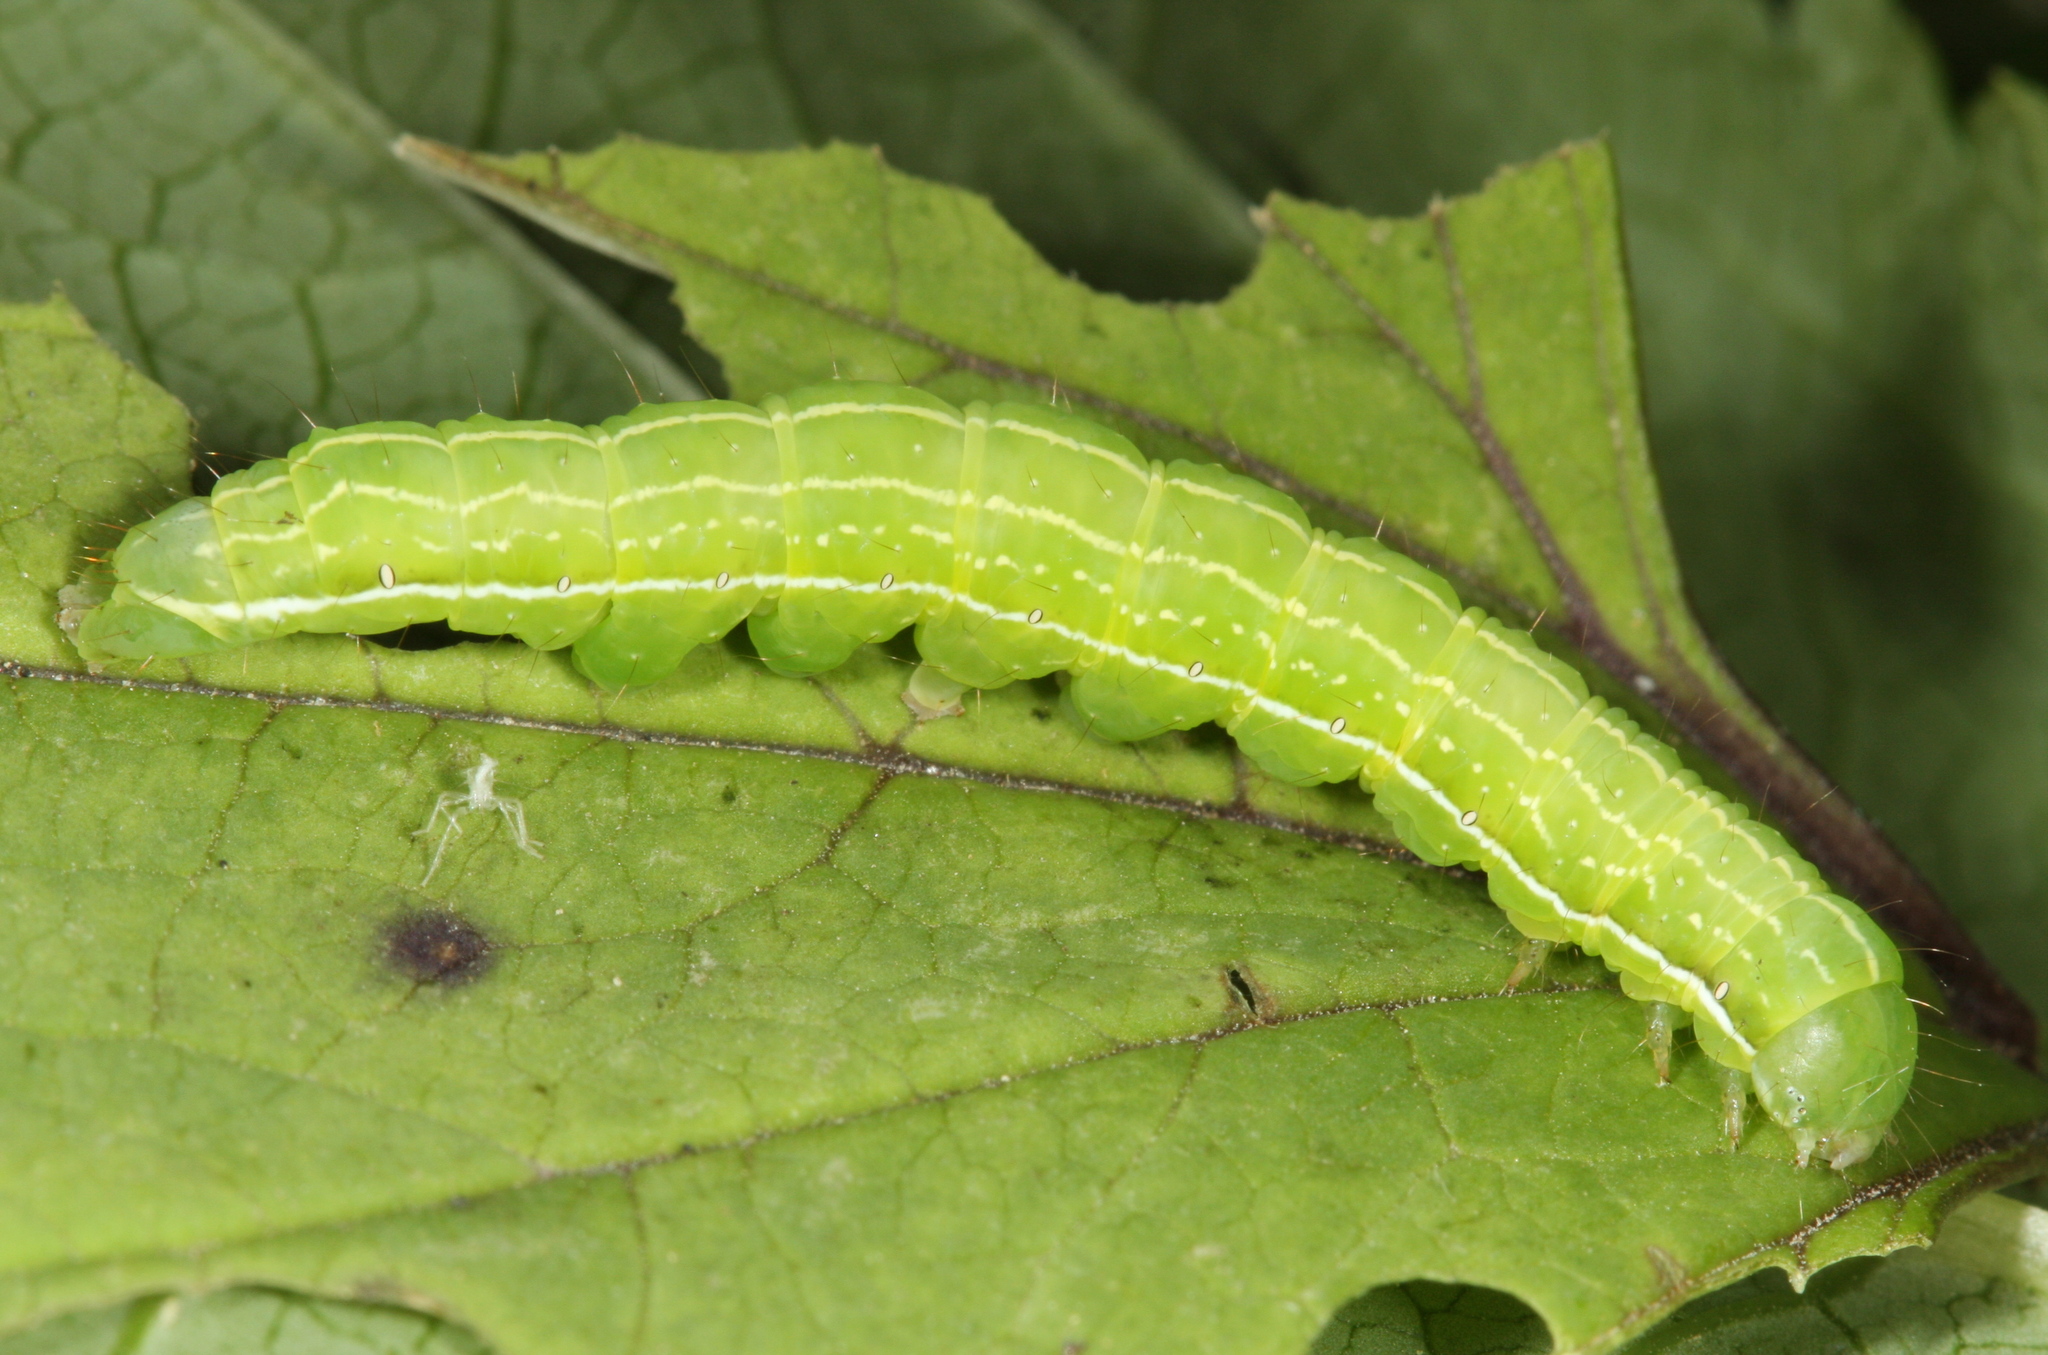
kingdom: Animalia
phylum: Arthropoda
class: Insecta
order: Lepidoptera
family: Noctuidae
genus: Shargacucullia
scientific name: Shargacucullia prenanthis
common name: False water betony
